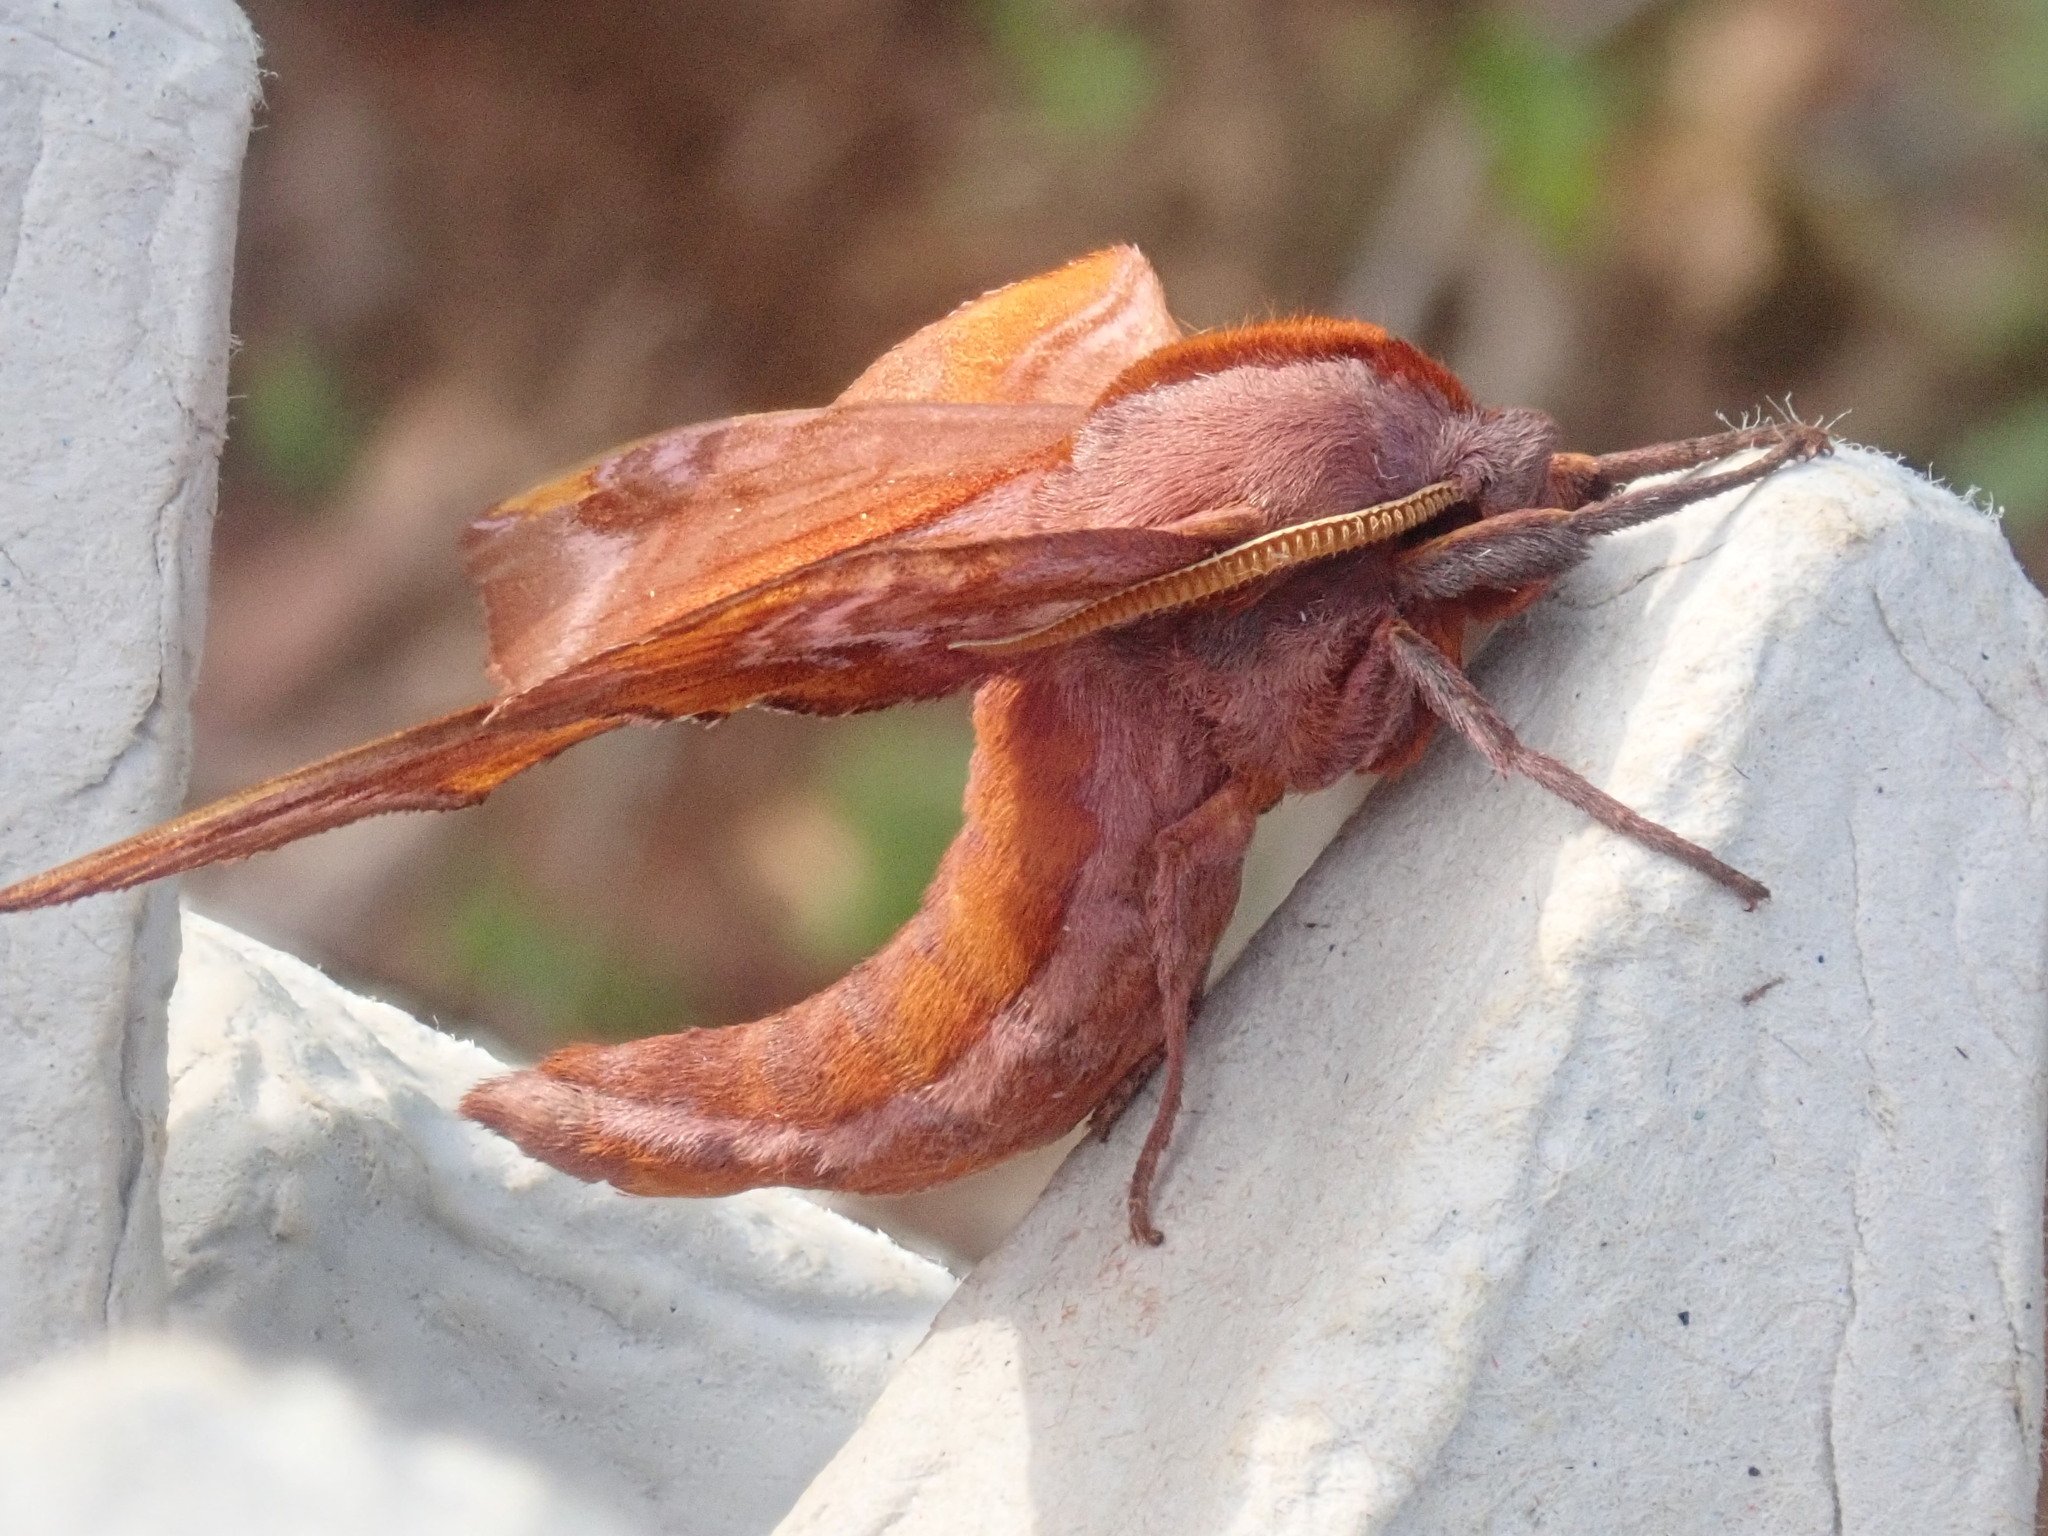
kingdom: Animalia
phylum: Arthropoda
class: Insecta
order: Lepidoptera
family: Sphingidae
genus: Paonias
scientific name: Paonias astylus
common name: Huckleberry sphinx
